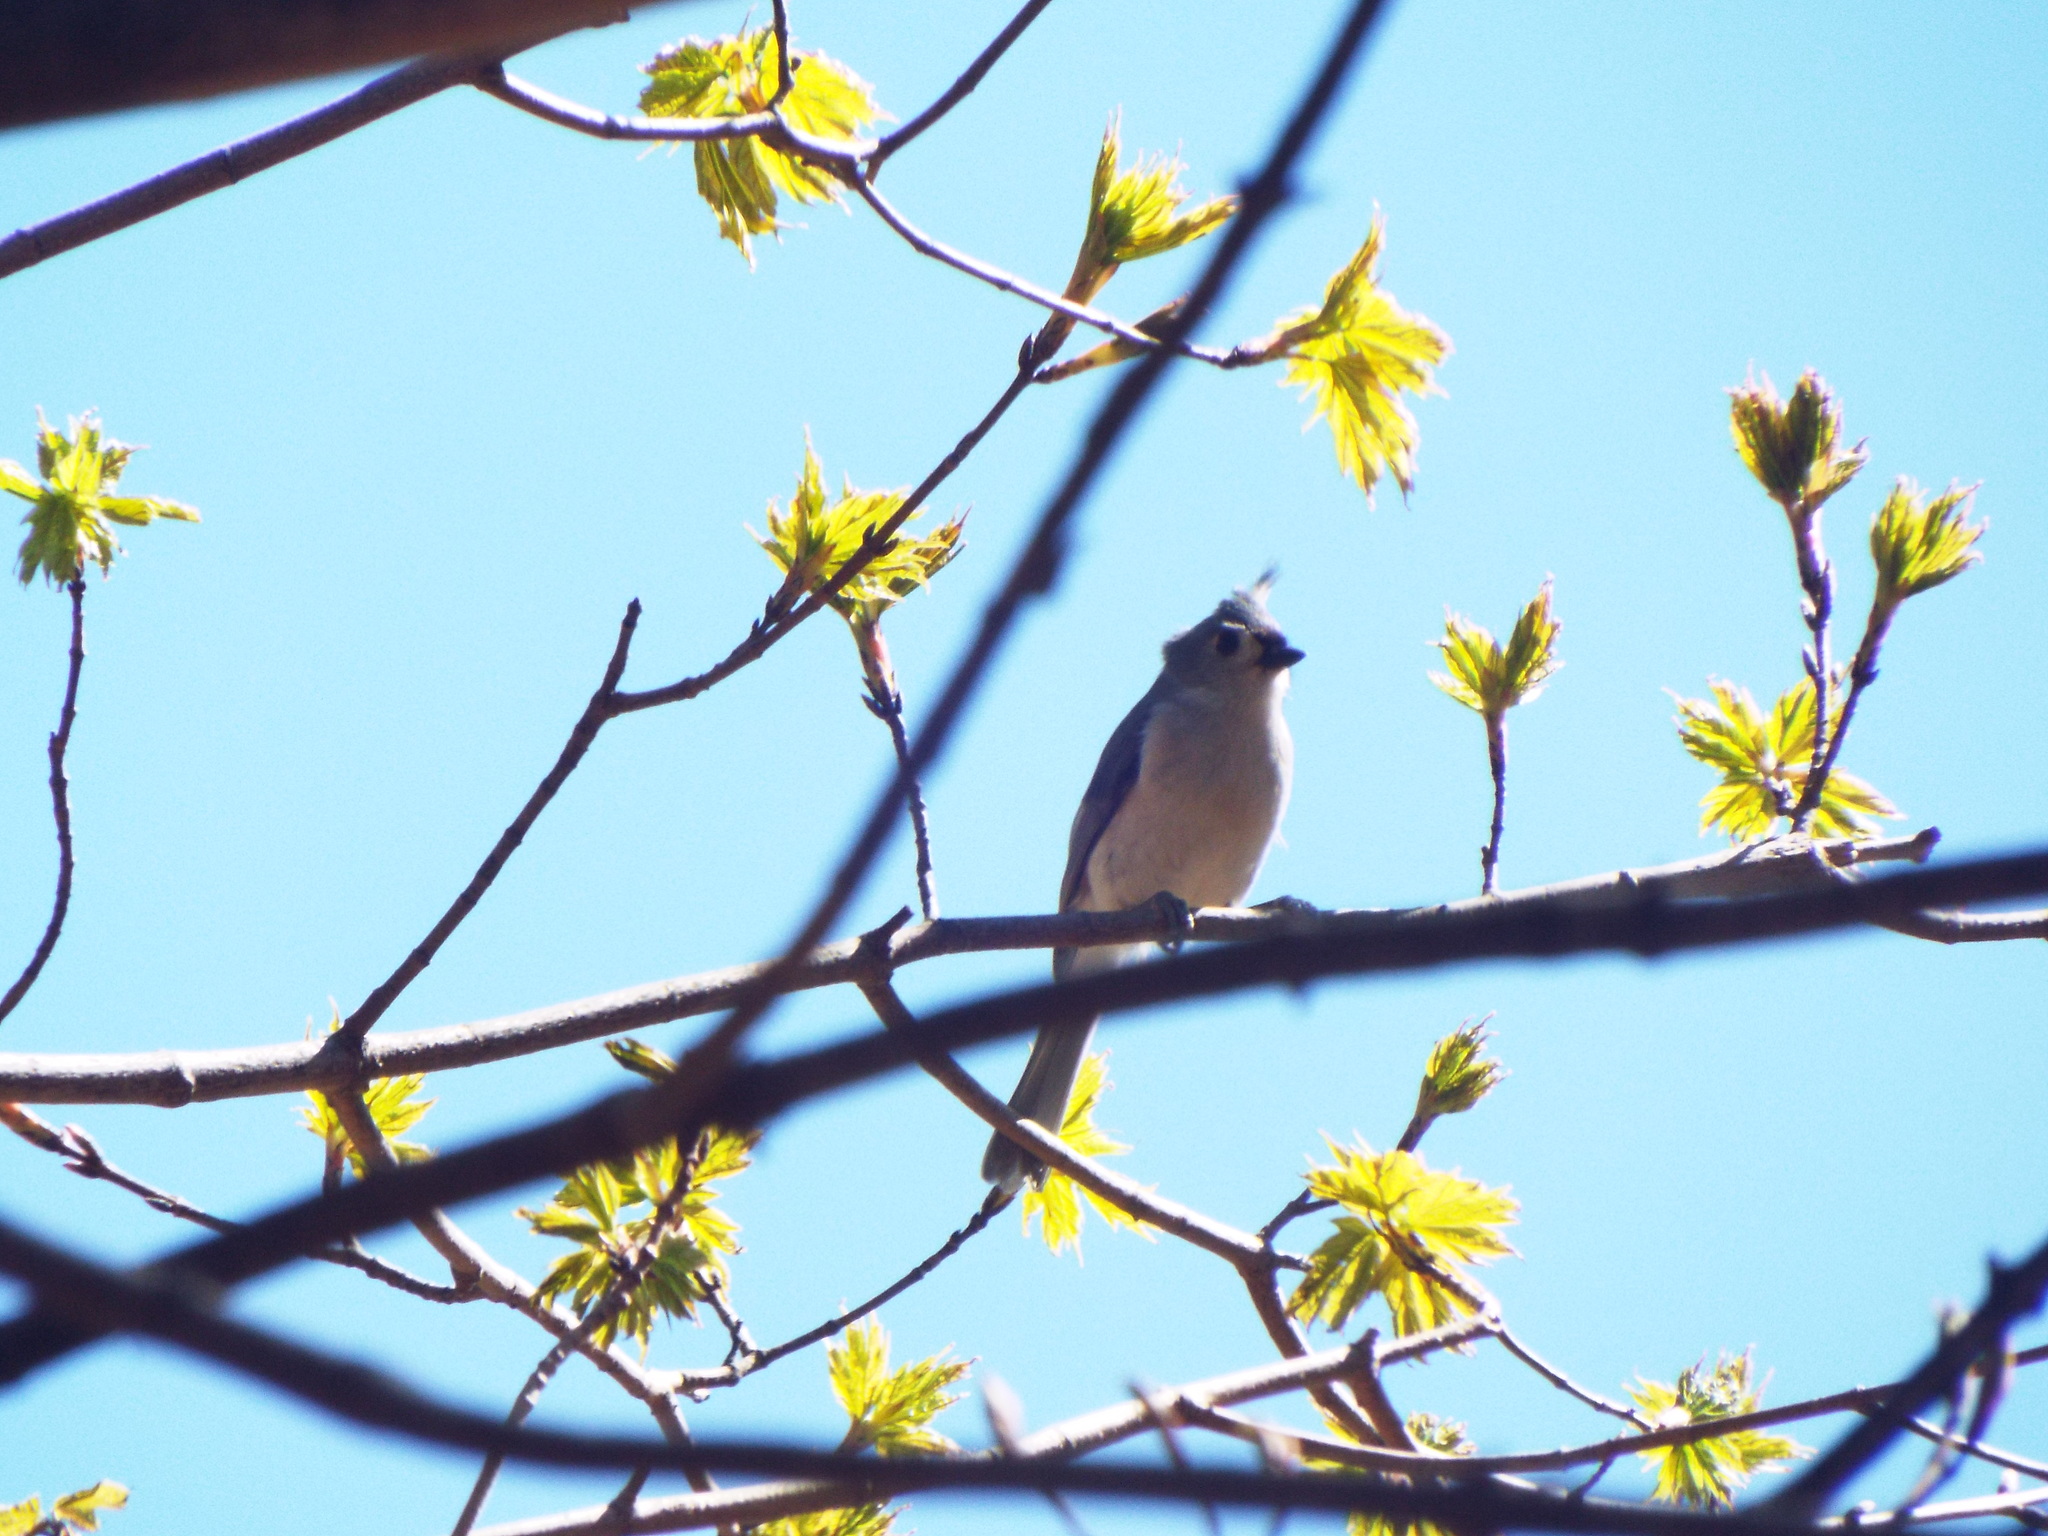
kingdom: Animalia
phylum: Chordata
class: Aves
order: Passeriformes
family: Paridae
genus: Baeolophus
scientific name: Baeolophus bicolor
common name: Tufted titmouse
